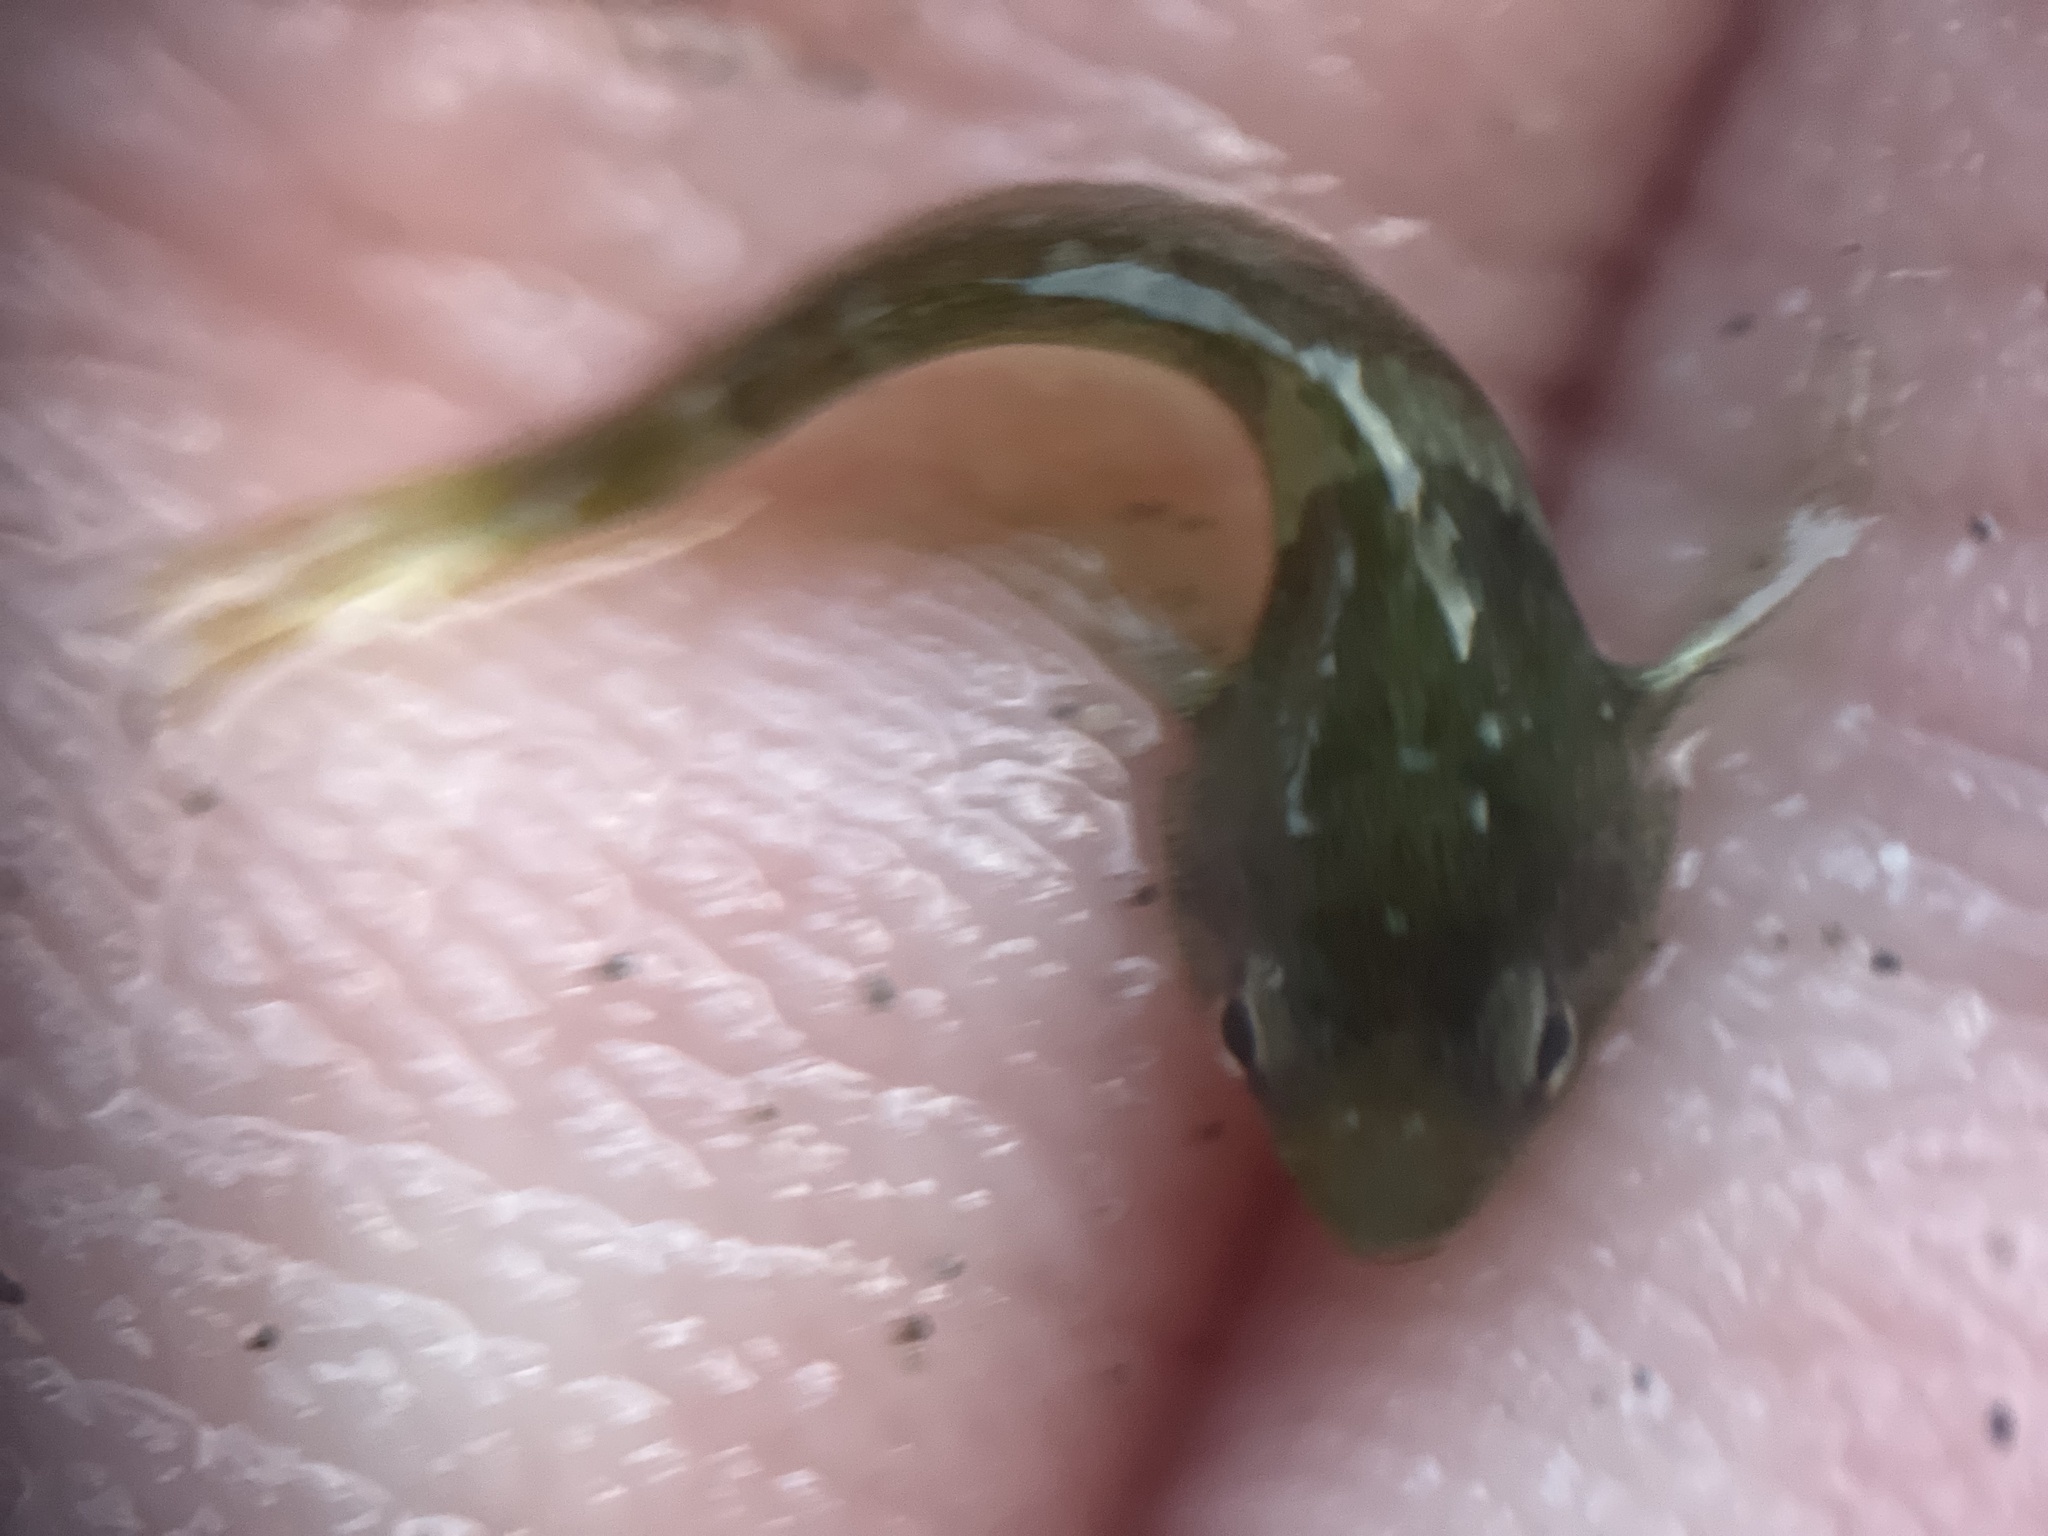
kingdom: Animalia
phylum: Chordata
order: Scorpaeniformes
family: Cottidae
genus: Oligocottus
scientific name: Oligocottus maculosus
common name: Tidepool sculpin
